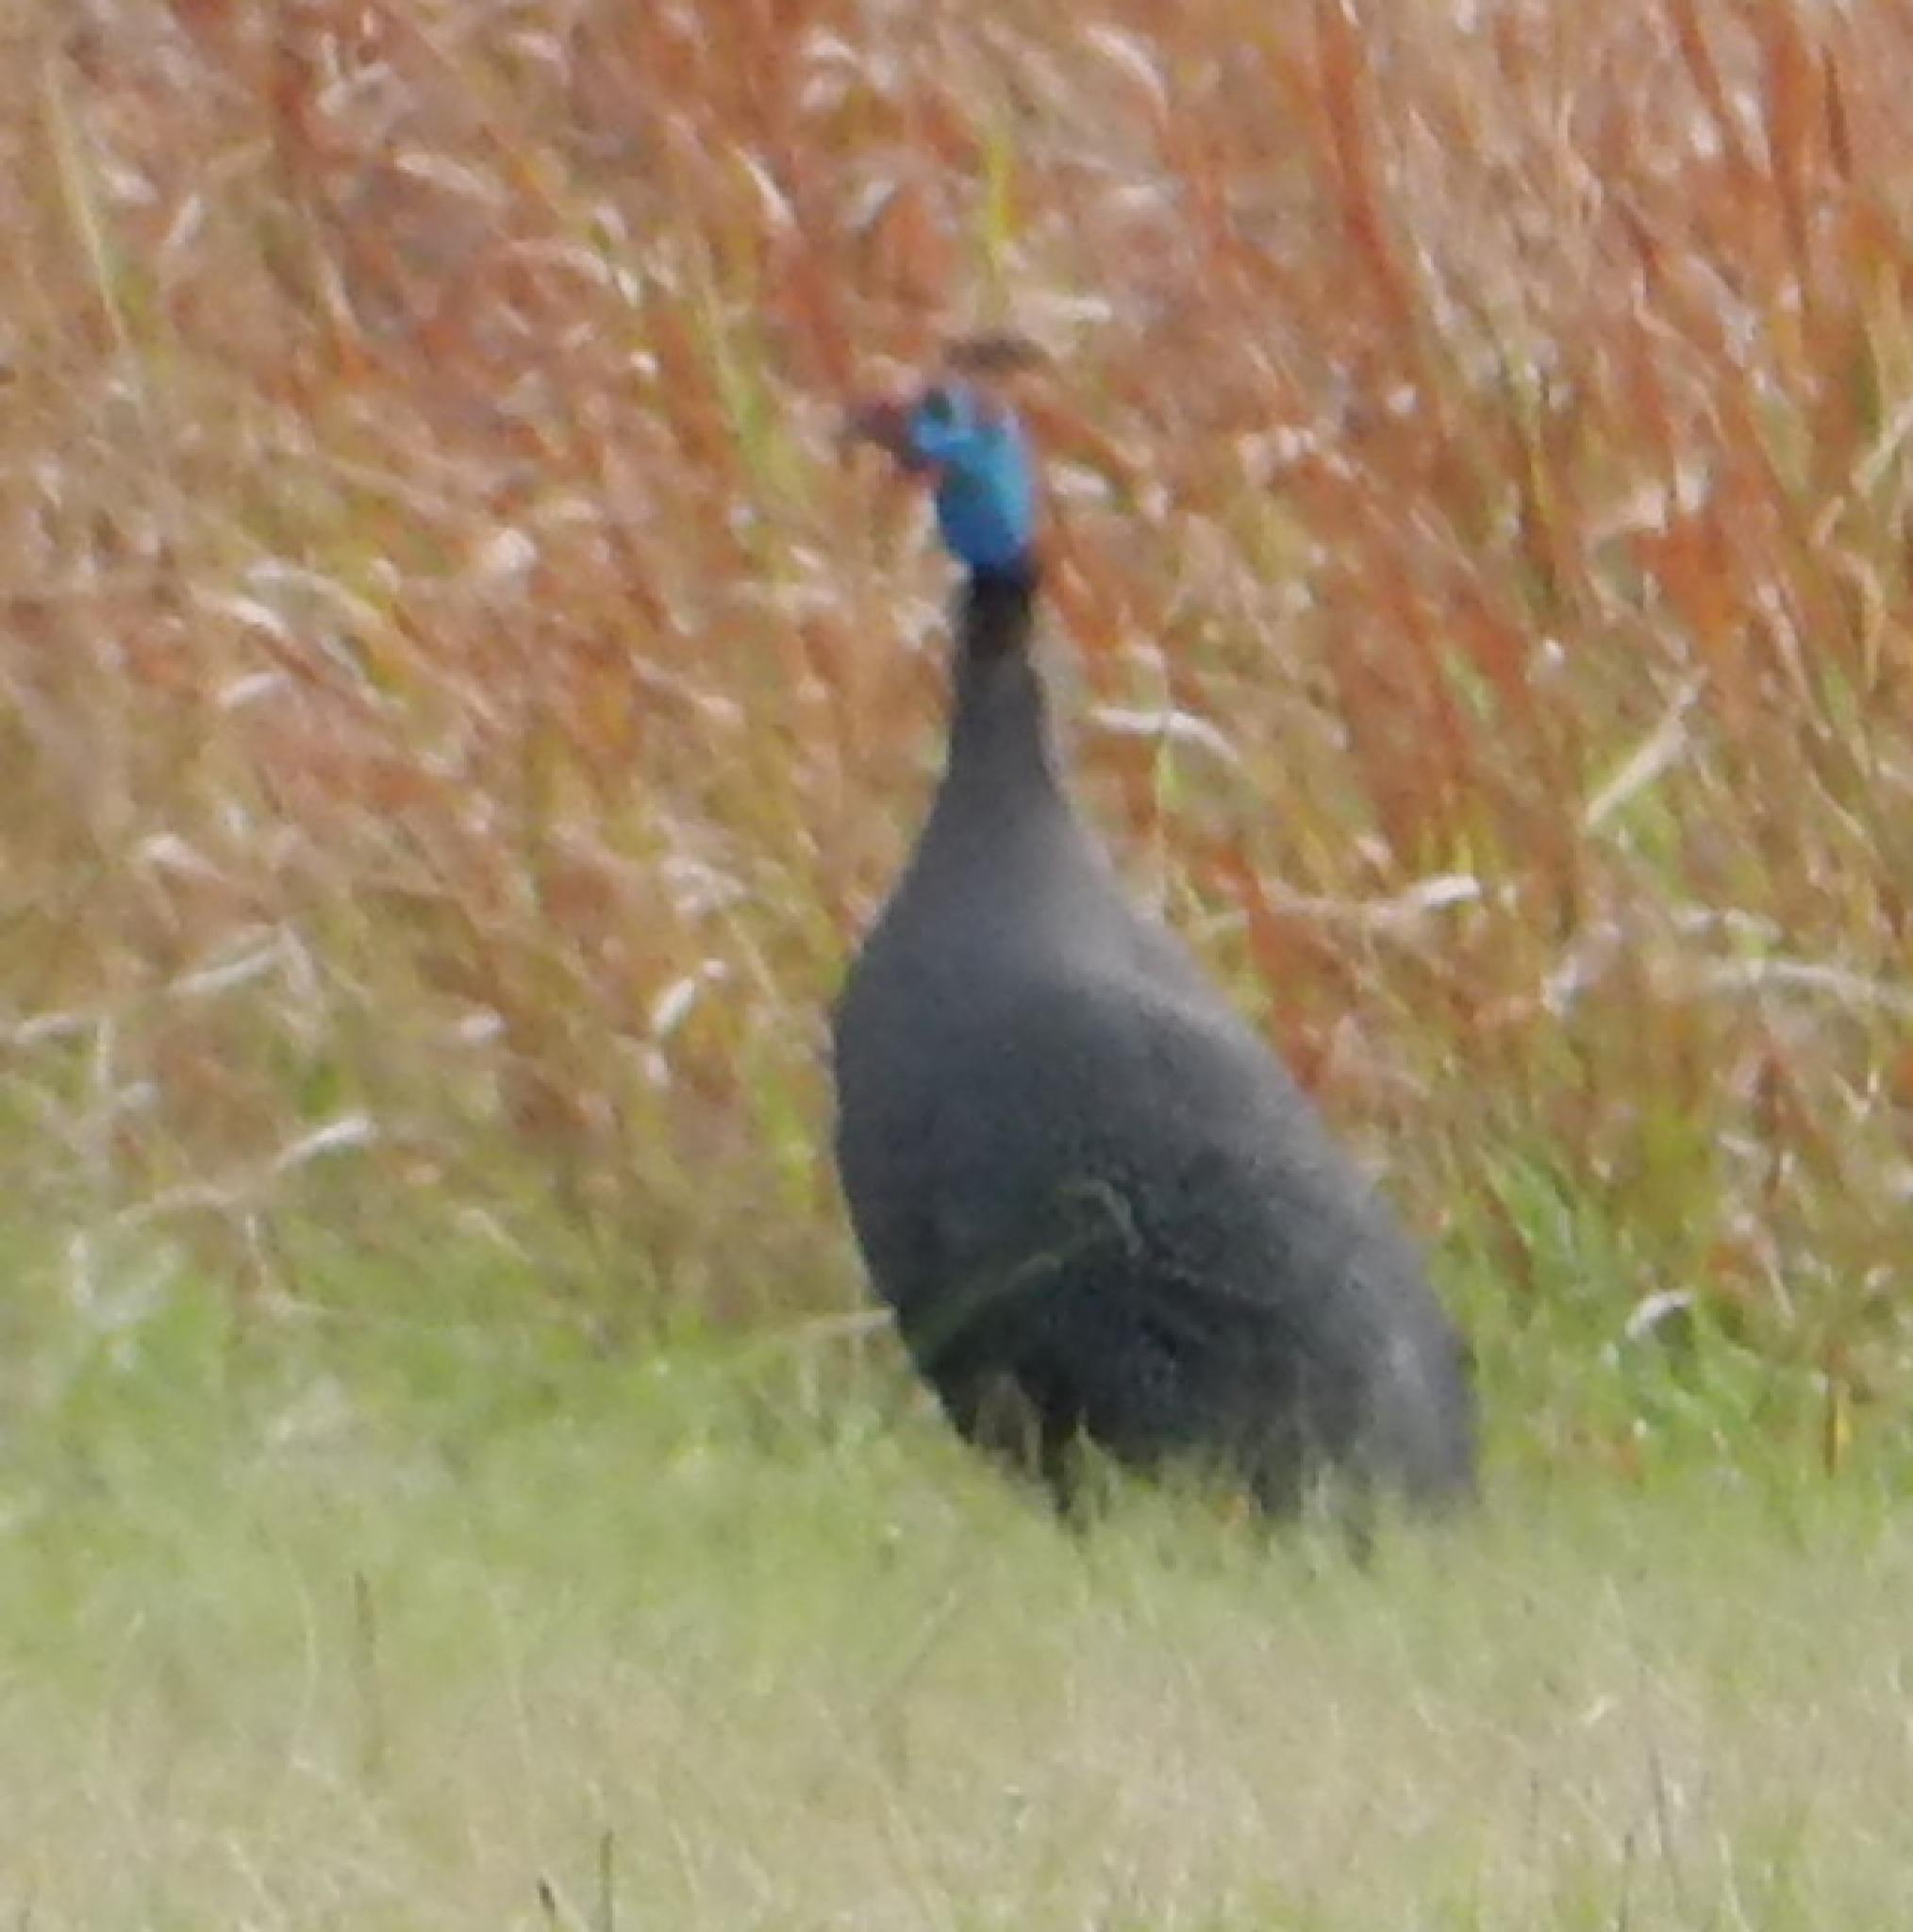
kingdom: Animalia
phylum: Chordata
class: Aves
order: Galliformes
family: Numididae
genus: Numida
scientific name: Numida meleagris
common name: Helmeted guineafowl
